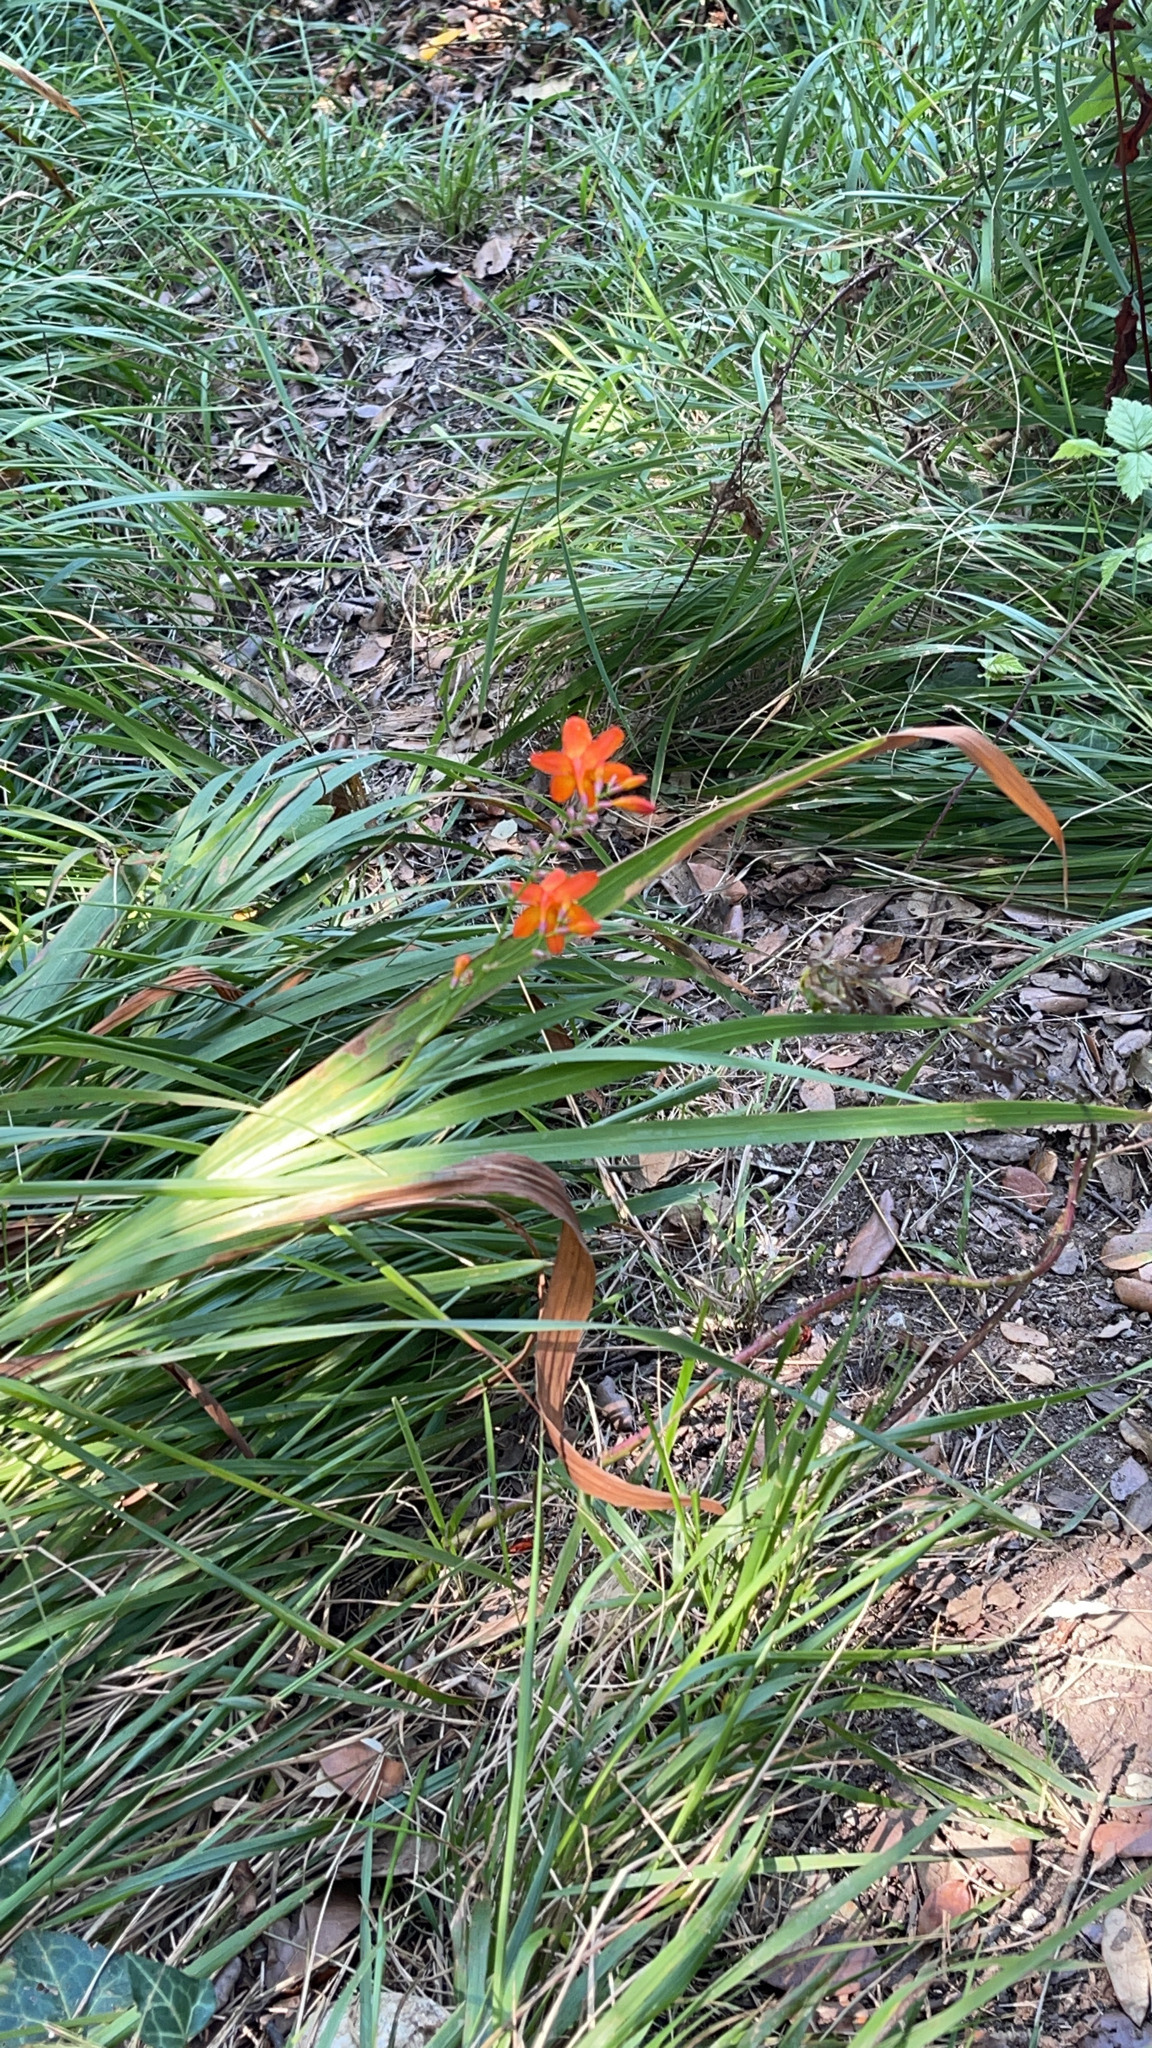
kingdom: Plantae
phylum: Tracheophyta
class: Liliopsida
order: Asparagales
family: Iridaceae
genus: Crocosmia
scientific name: Crocosmia crocosmiiflora
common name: Montbretia
